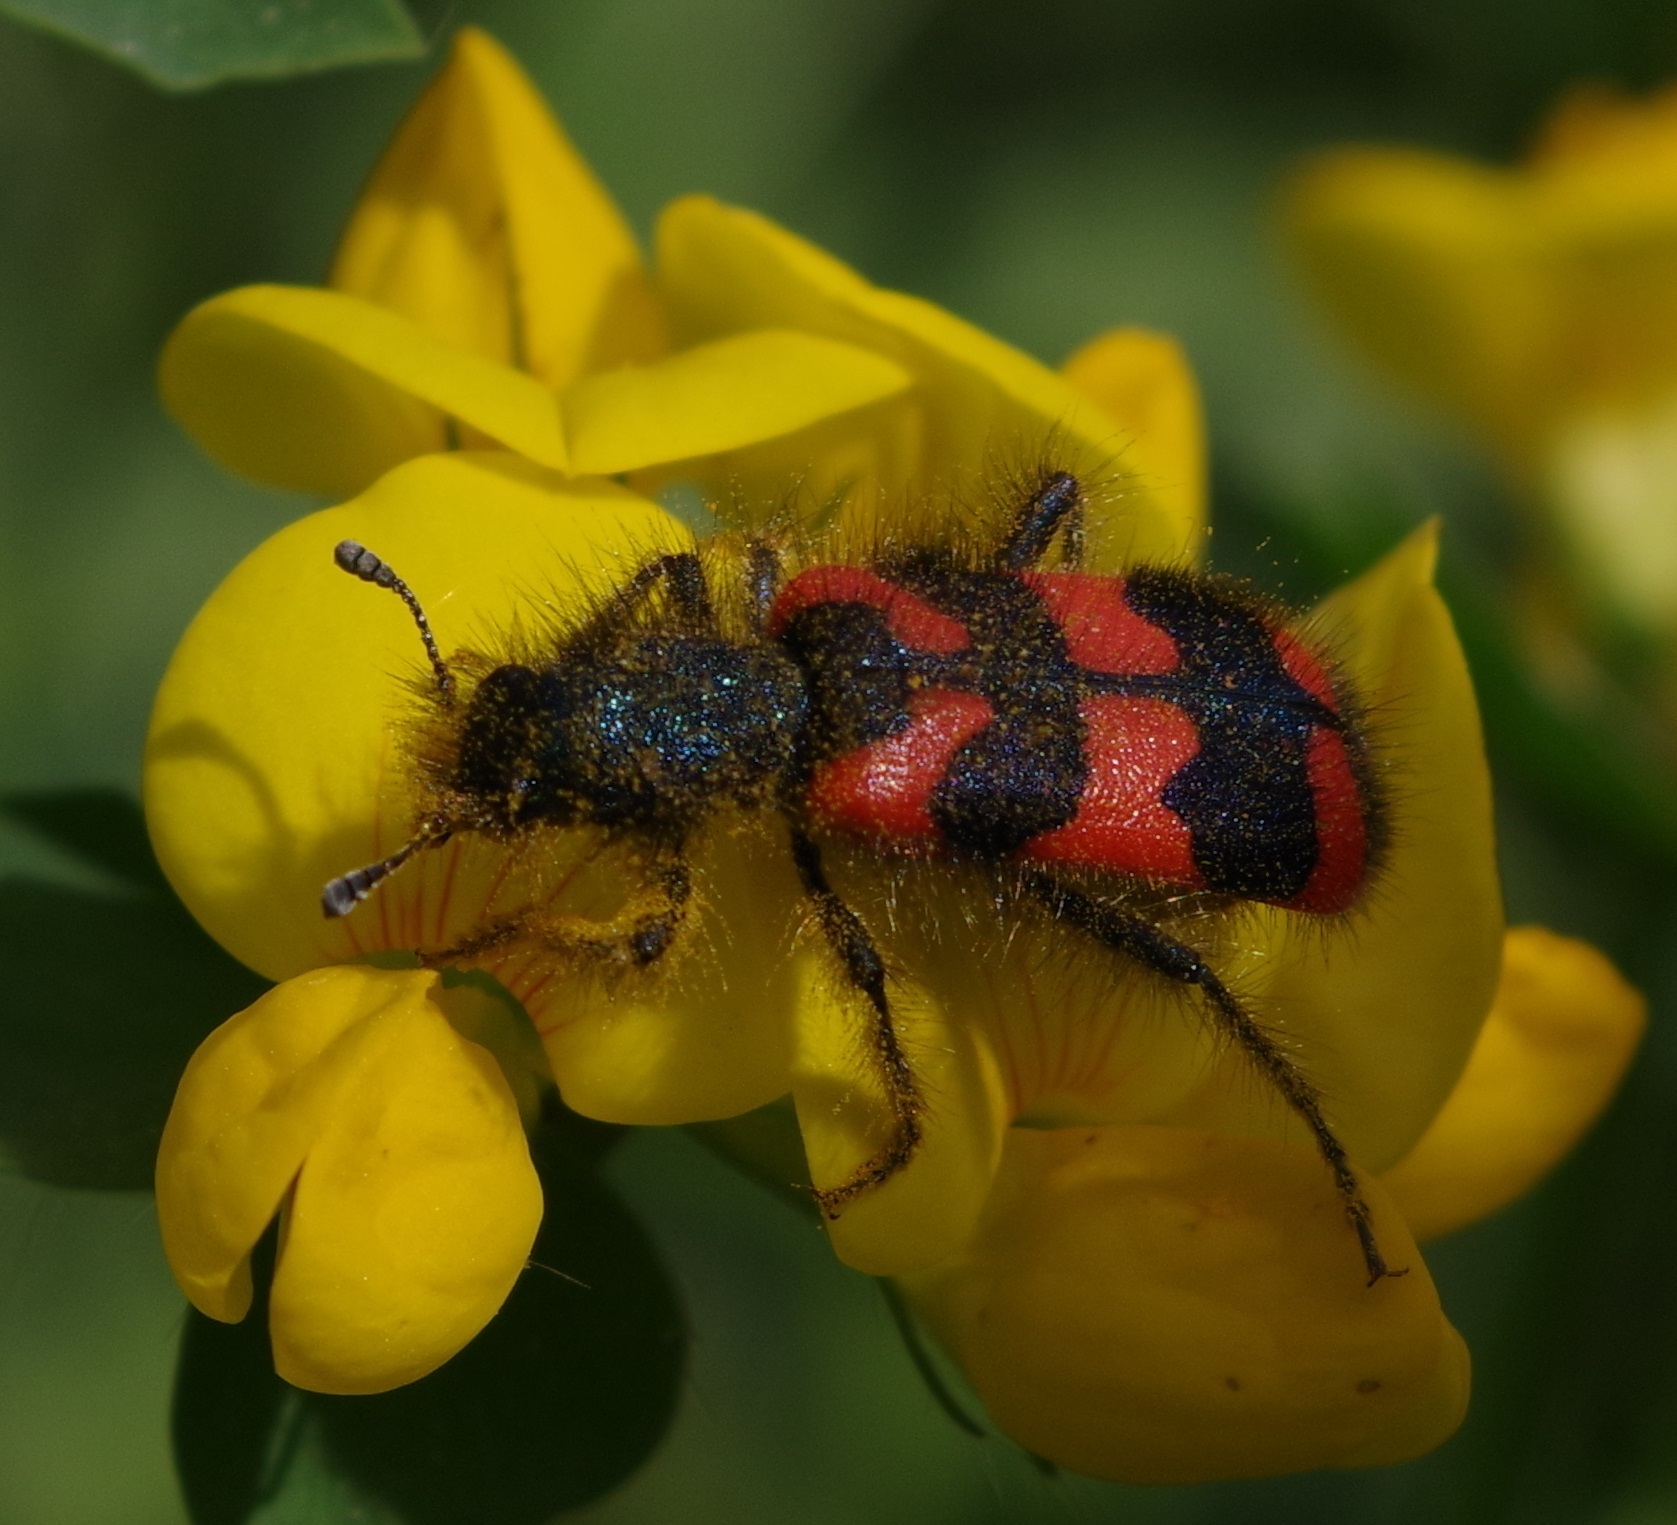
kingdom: Animalia
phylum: Arthropoda
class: Insecta
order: Coleoptera
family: Cleridae
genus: Trichodes
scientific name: Trichodes alvearius
